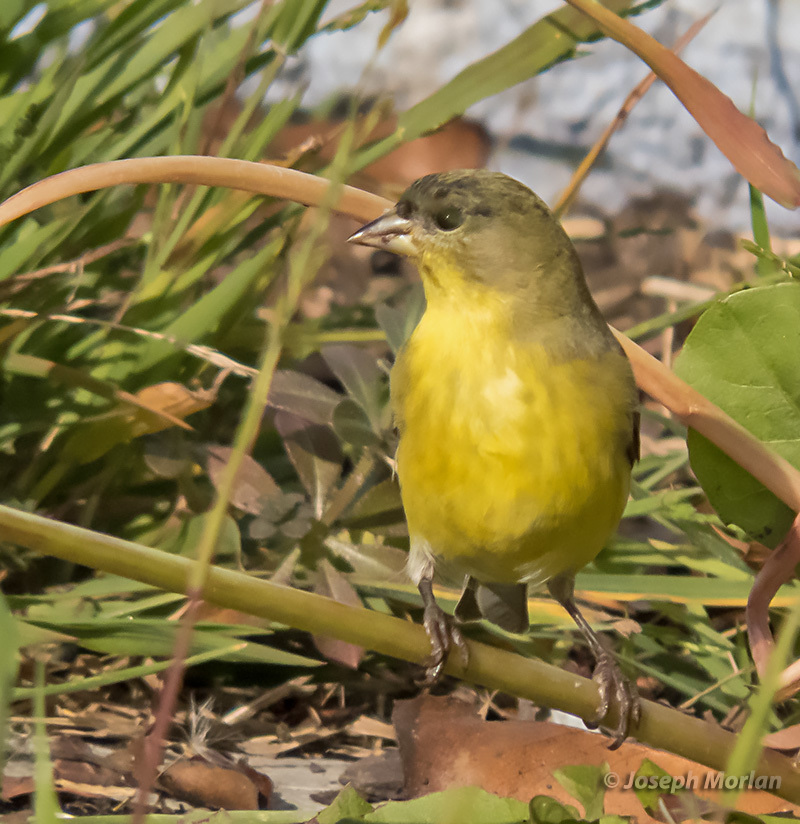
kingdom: Animalia
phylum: Chordata
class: Aves
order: Passeriformes
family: Fringillidae
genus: Spinus
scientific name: Spinus psaltria
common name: Lesser goldfinch
